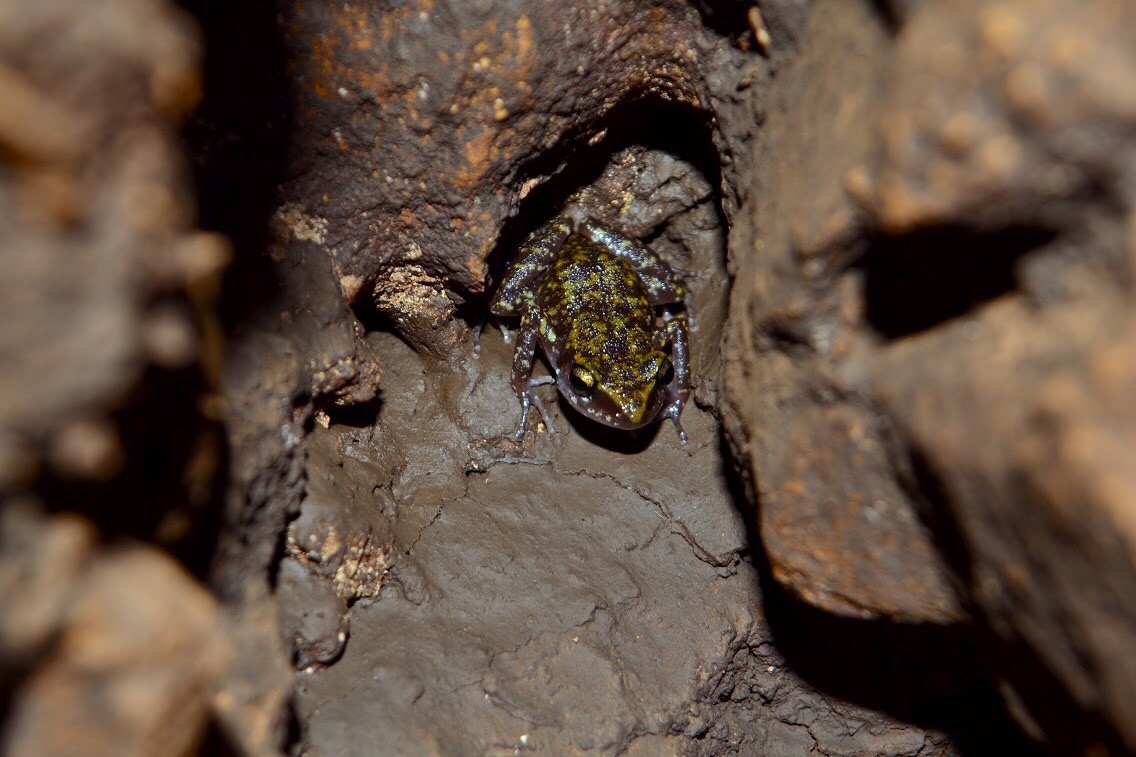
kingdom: Animalia
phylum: Chordata
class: Amphibia
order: Anura
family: Eleutherodactylidae
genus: Eleutherodactylus
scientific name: Eleutherodactylus pipilans
